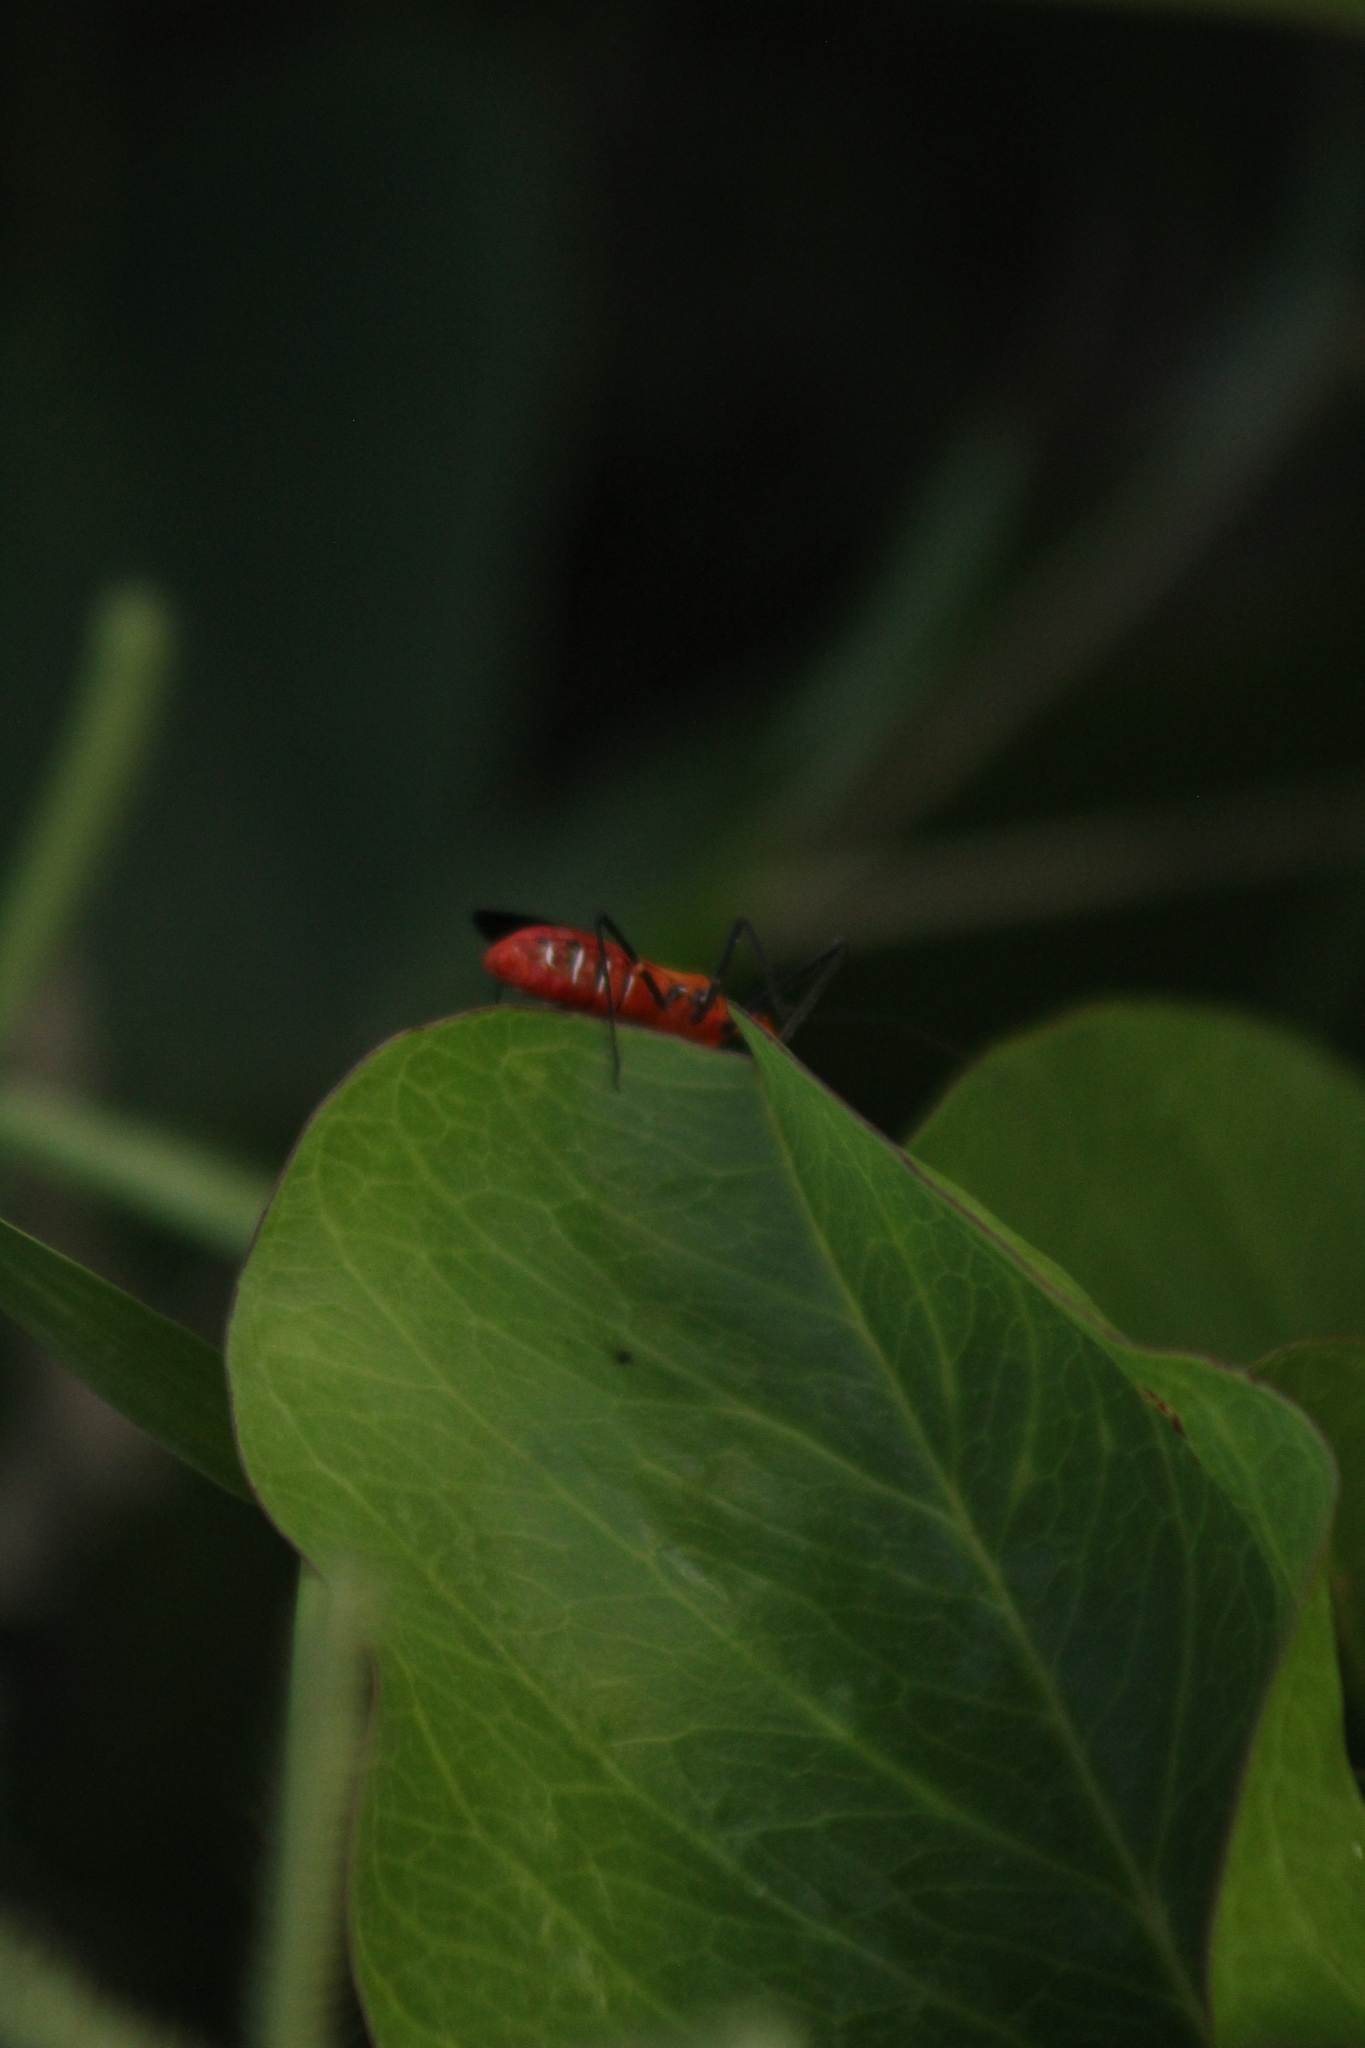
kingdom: Animalia
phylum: Arthropoda
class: Insecta
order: Lepidoptera
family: Crambidae
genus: Spoladea
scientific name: Spoladea recurvalis
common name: Beet webworm moth
